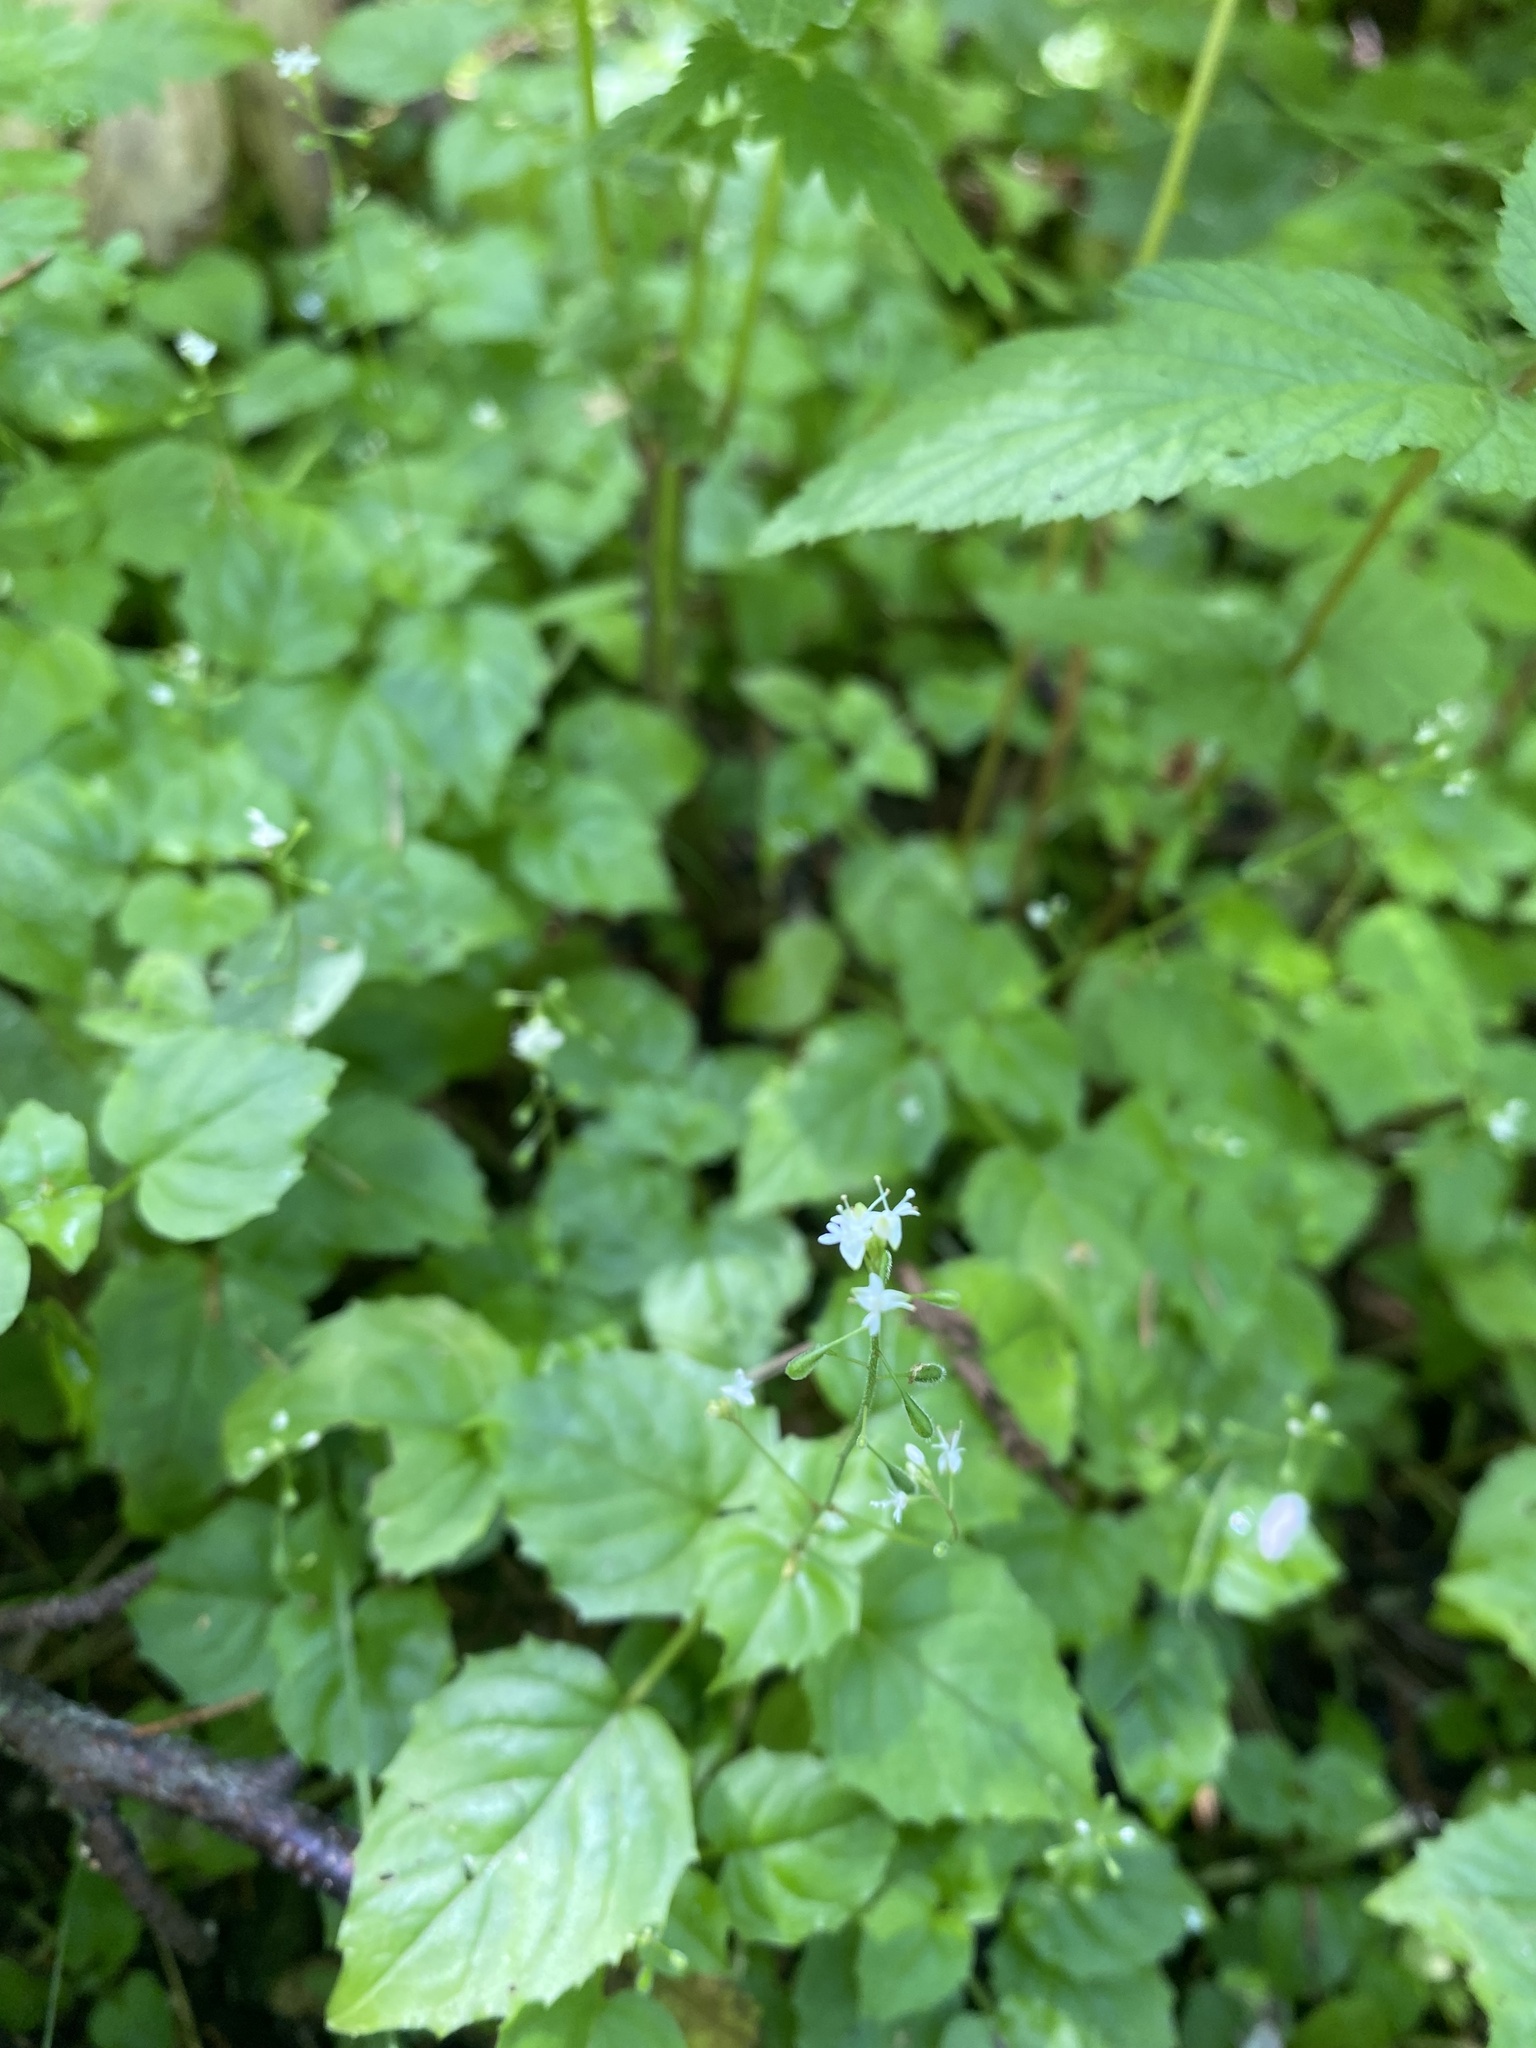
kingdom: Plantae
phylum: Tracheophyta
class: Magnoliopsida
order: Myrtales
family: Onagraceae
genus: Circaea
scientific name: Circaea alpina
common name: Alpine enchanter's-nightshade
